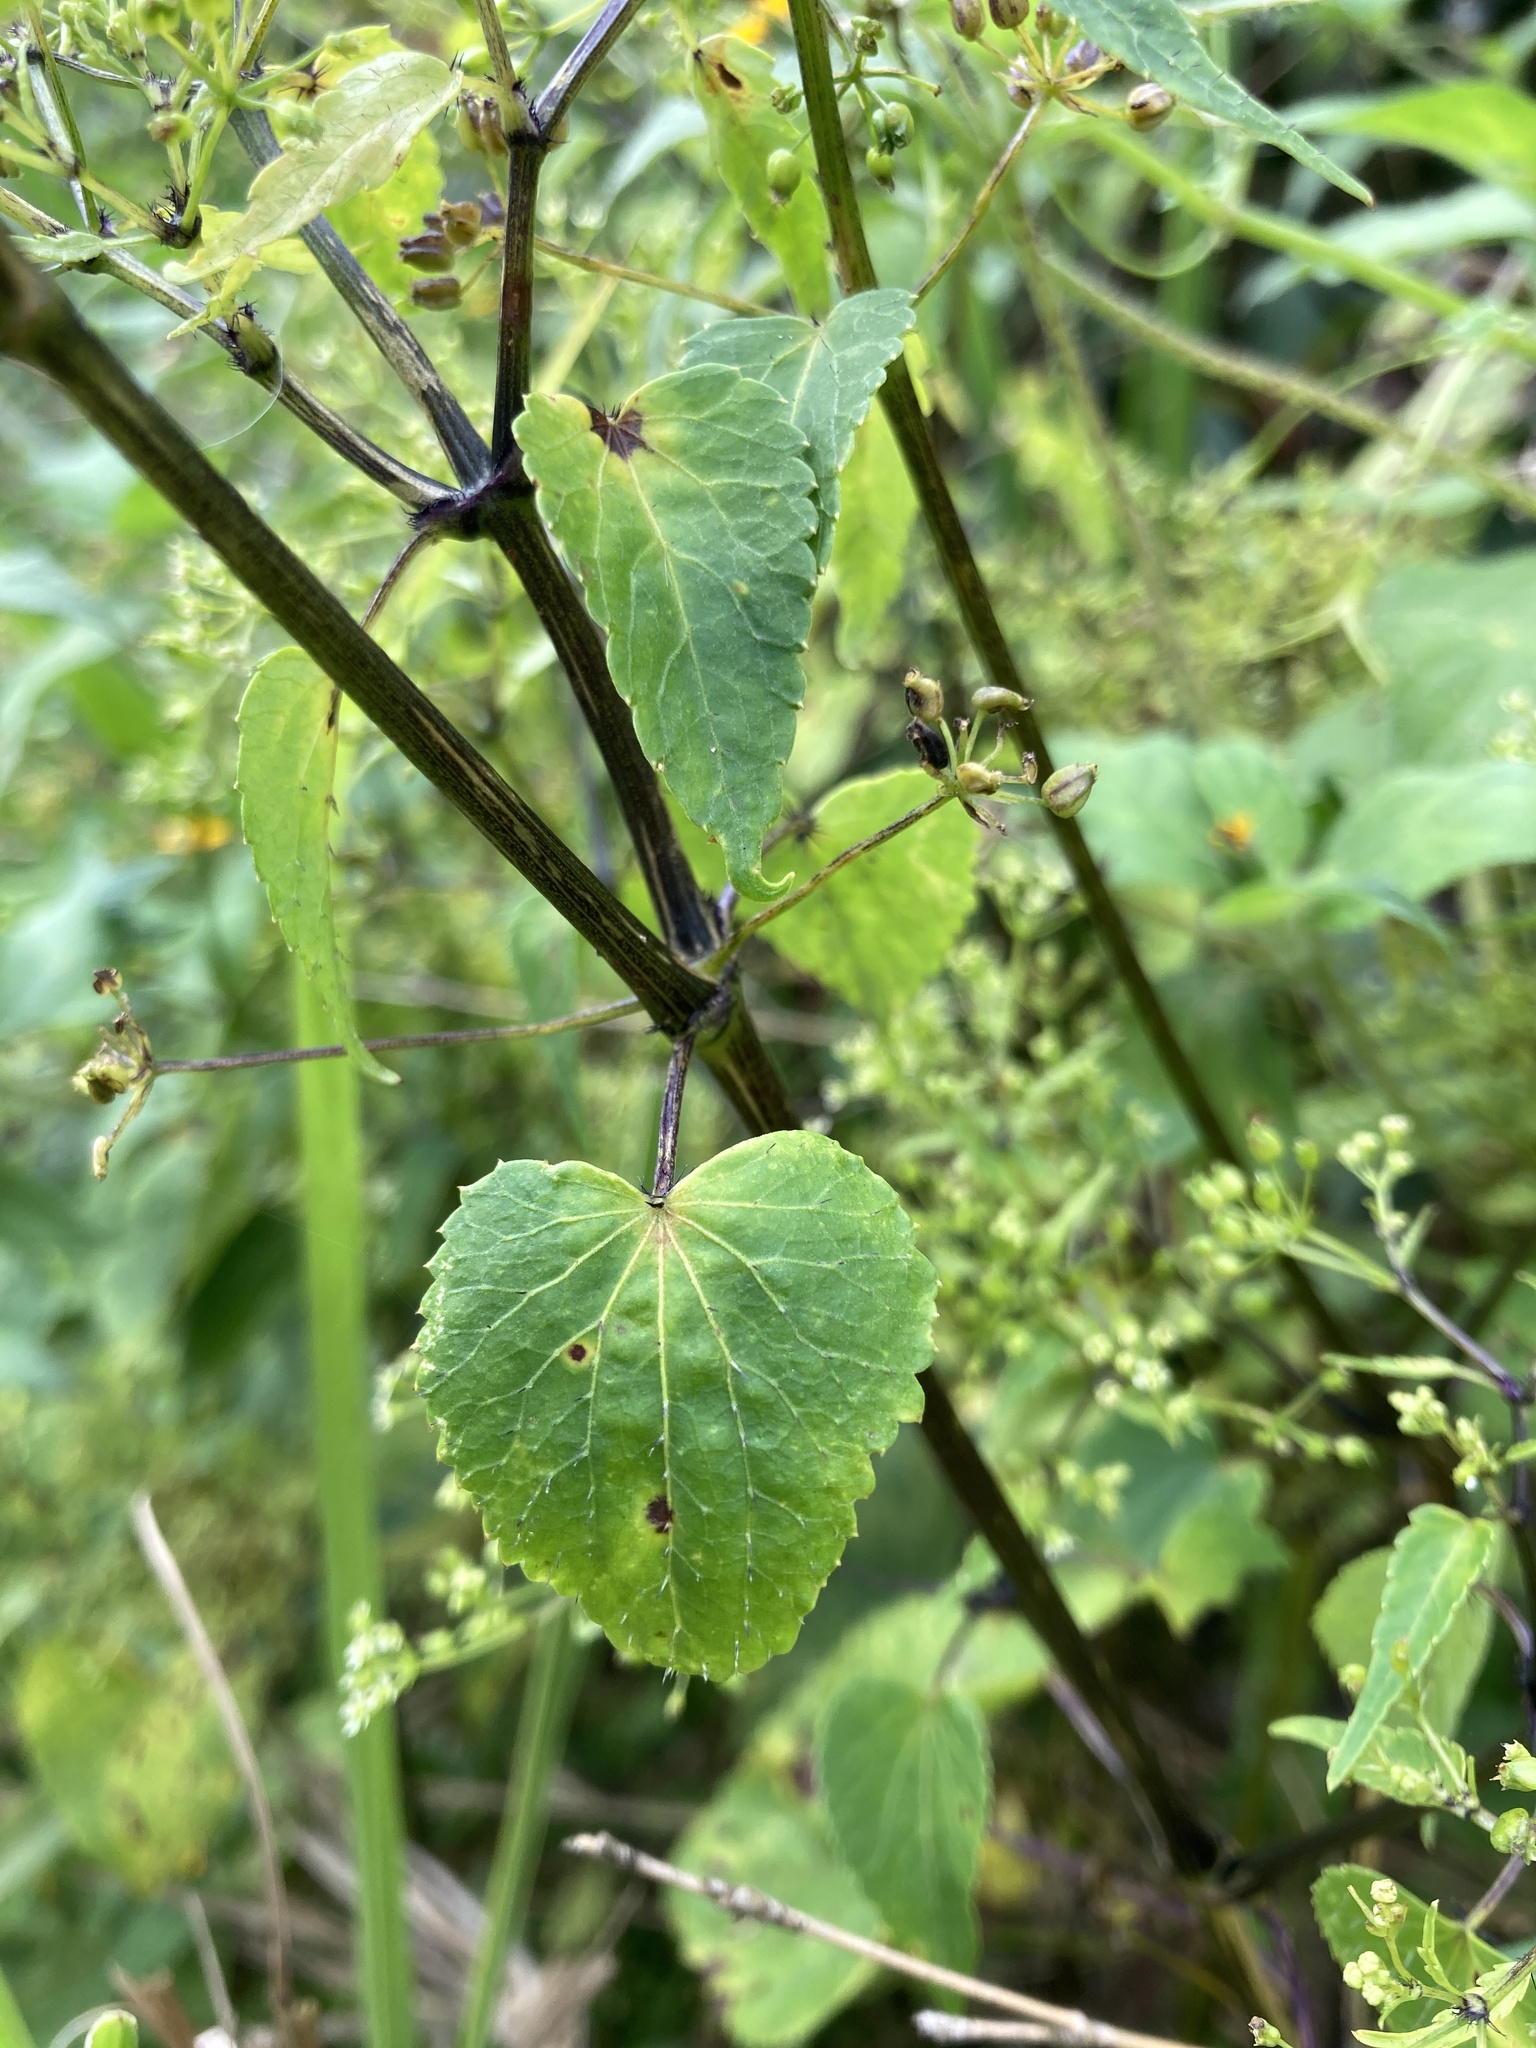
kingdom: Plantae
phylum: Tracheophyta
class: Magnoliopsida
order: Apiales
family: Apiaceae
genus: Spananthe
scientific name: Spananthe paniculata
